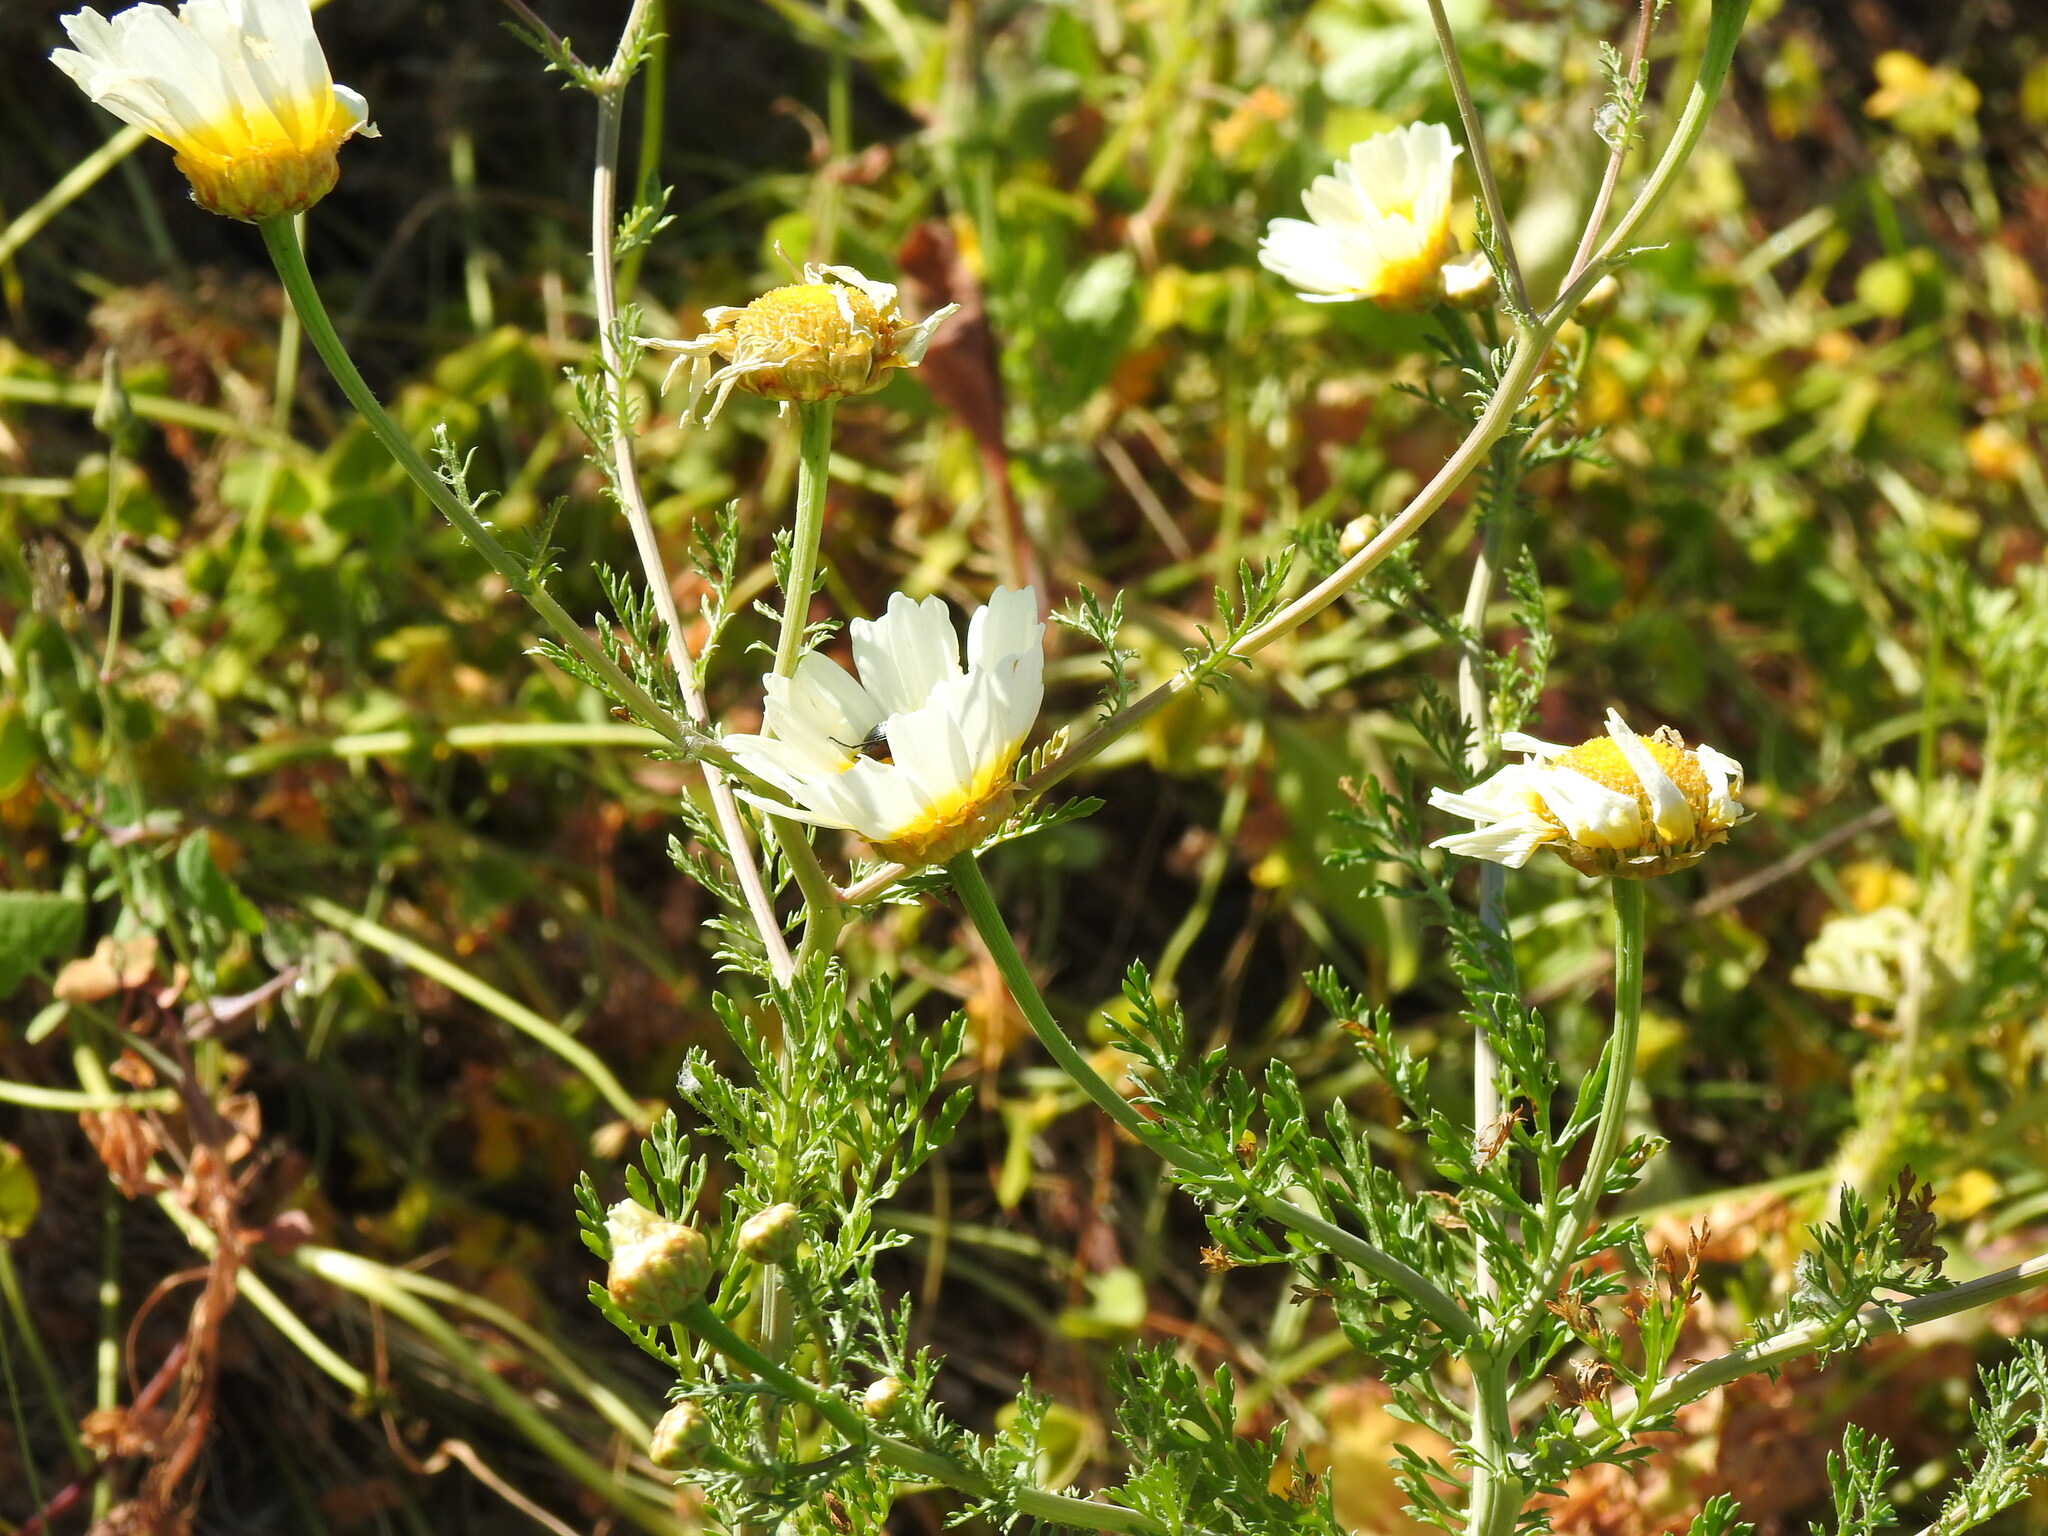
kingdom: Plantae
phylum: Tracheophyta
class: Magnoliopsida
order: Asterales
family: Asteraceae
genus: Glebionis
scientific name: Glebionis coronaria
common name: Crowndaisy
